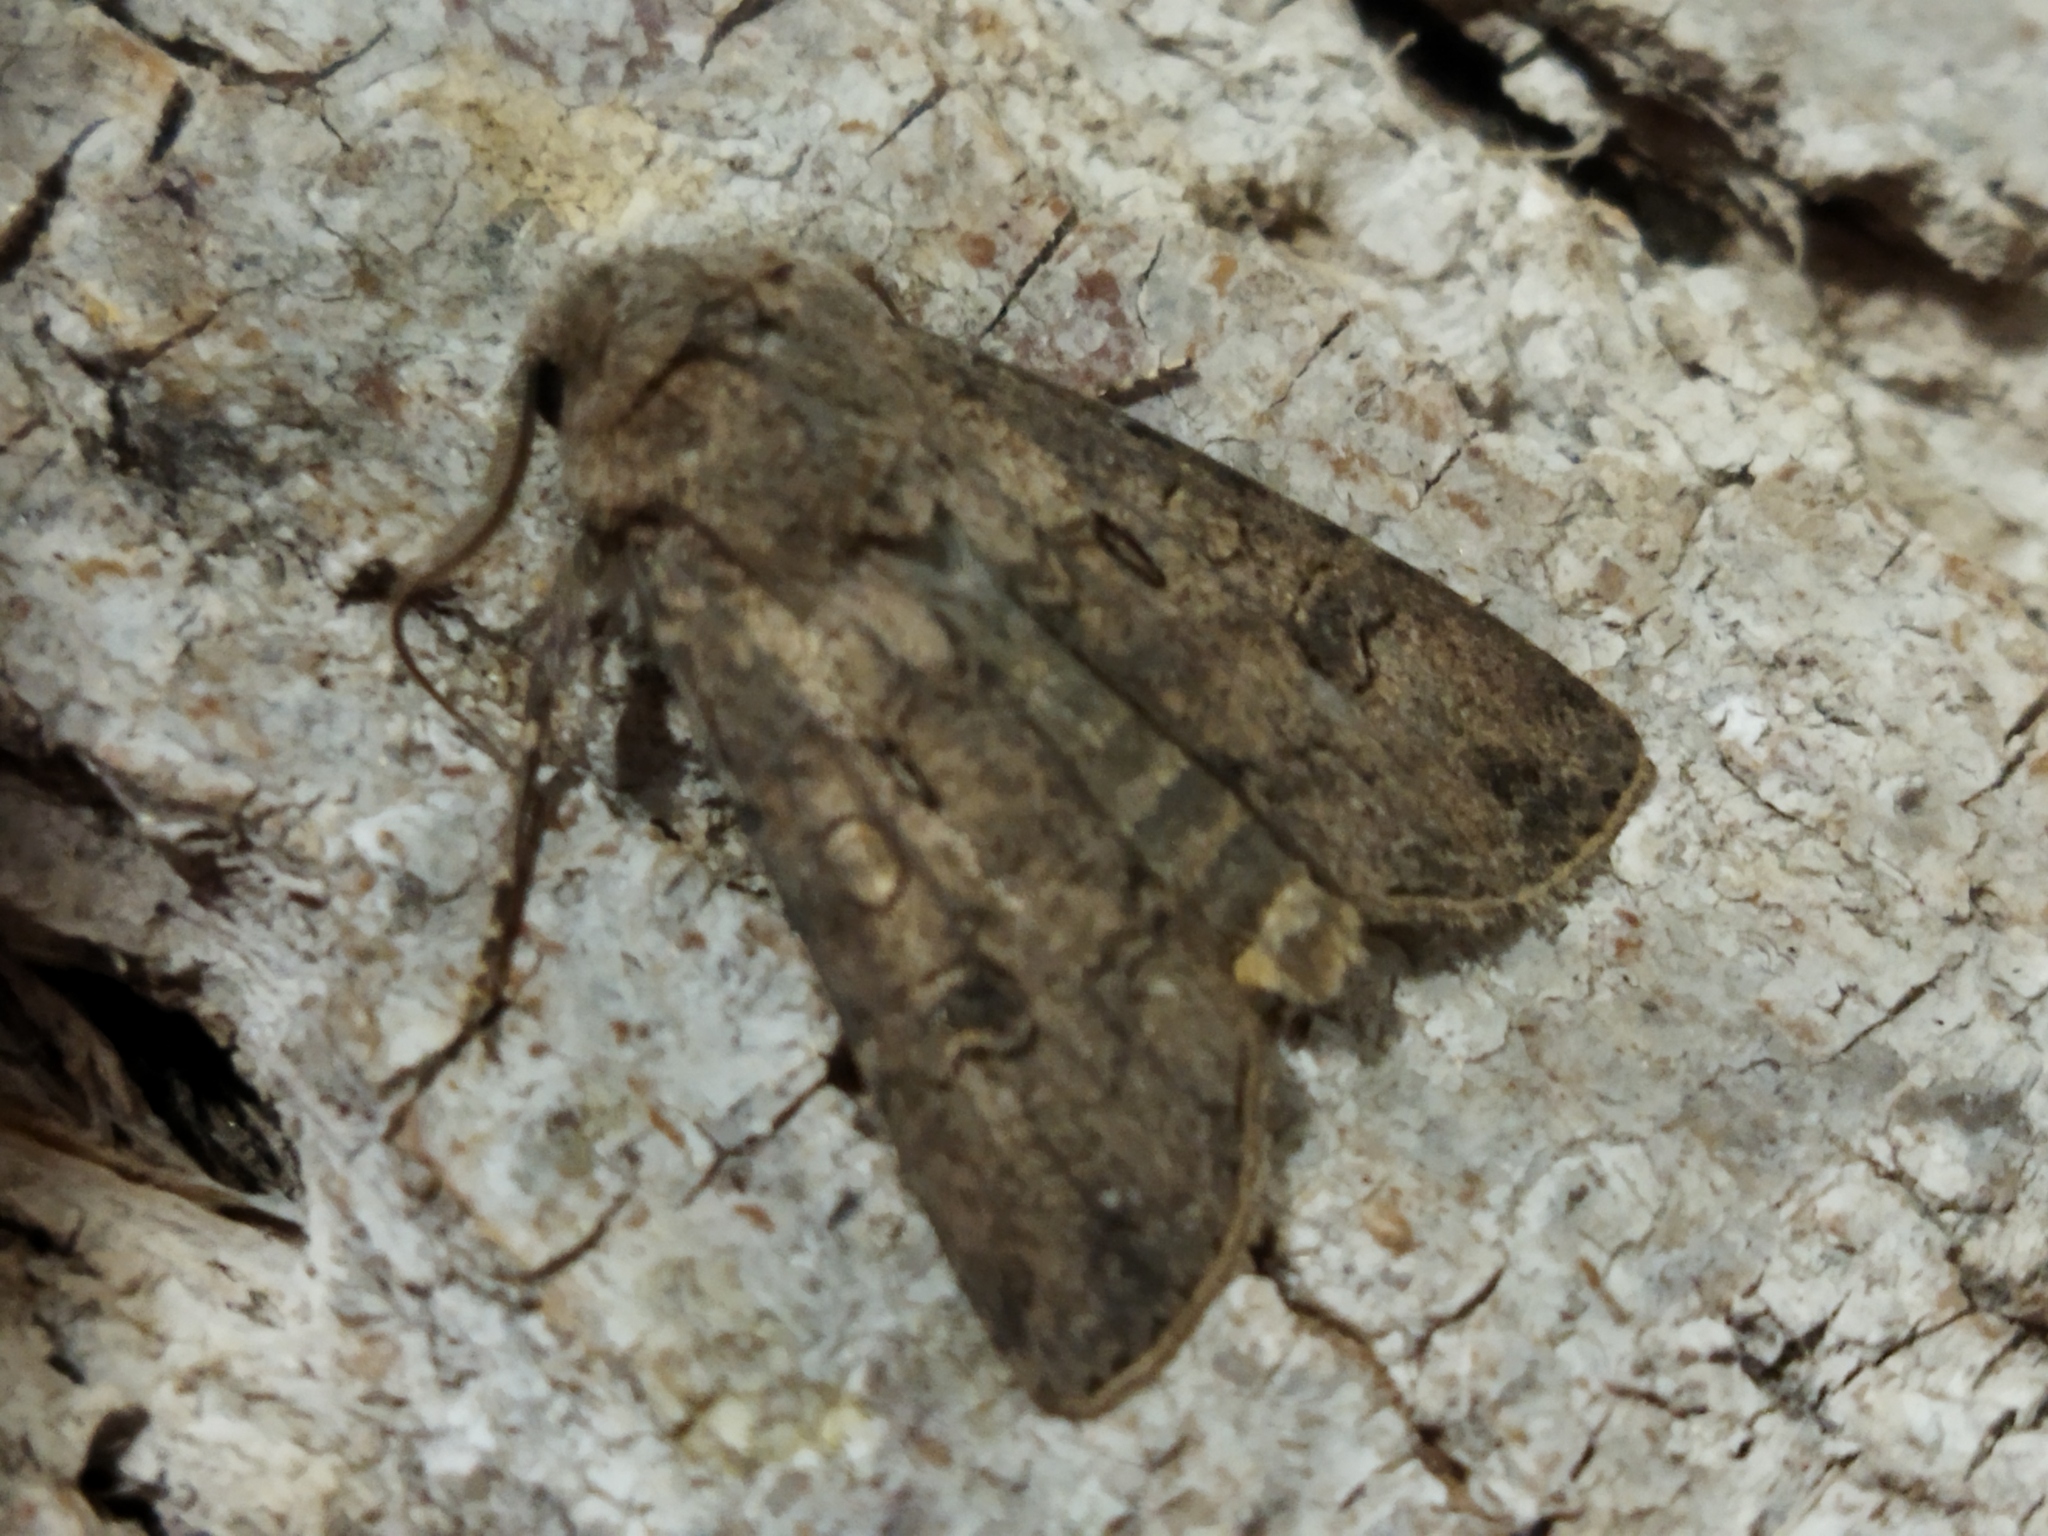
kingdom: Animalia
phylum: Arthropoda
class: Insecta
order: Lepidoptera
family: Noctuidae
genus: Agrotis
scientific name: Agrotis segetum
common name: Turnip moth
